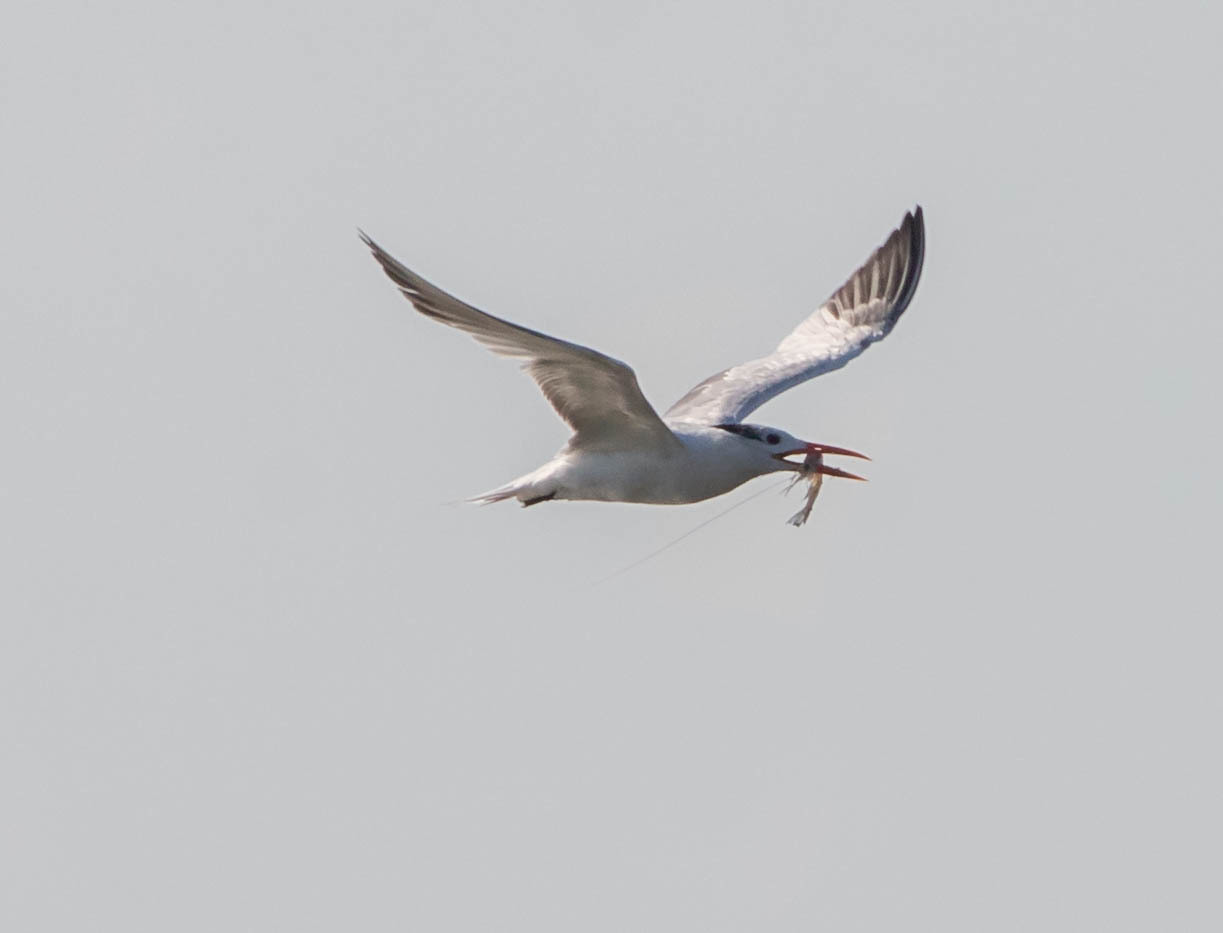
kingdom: Animalia
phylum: Chordata
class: Aves
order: Charadriiformes
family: Laridae
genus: Thalasseus
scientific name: Thalasseus maximus
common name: Royal tern
